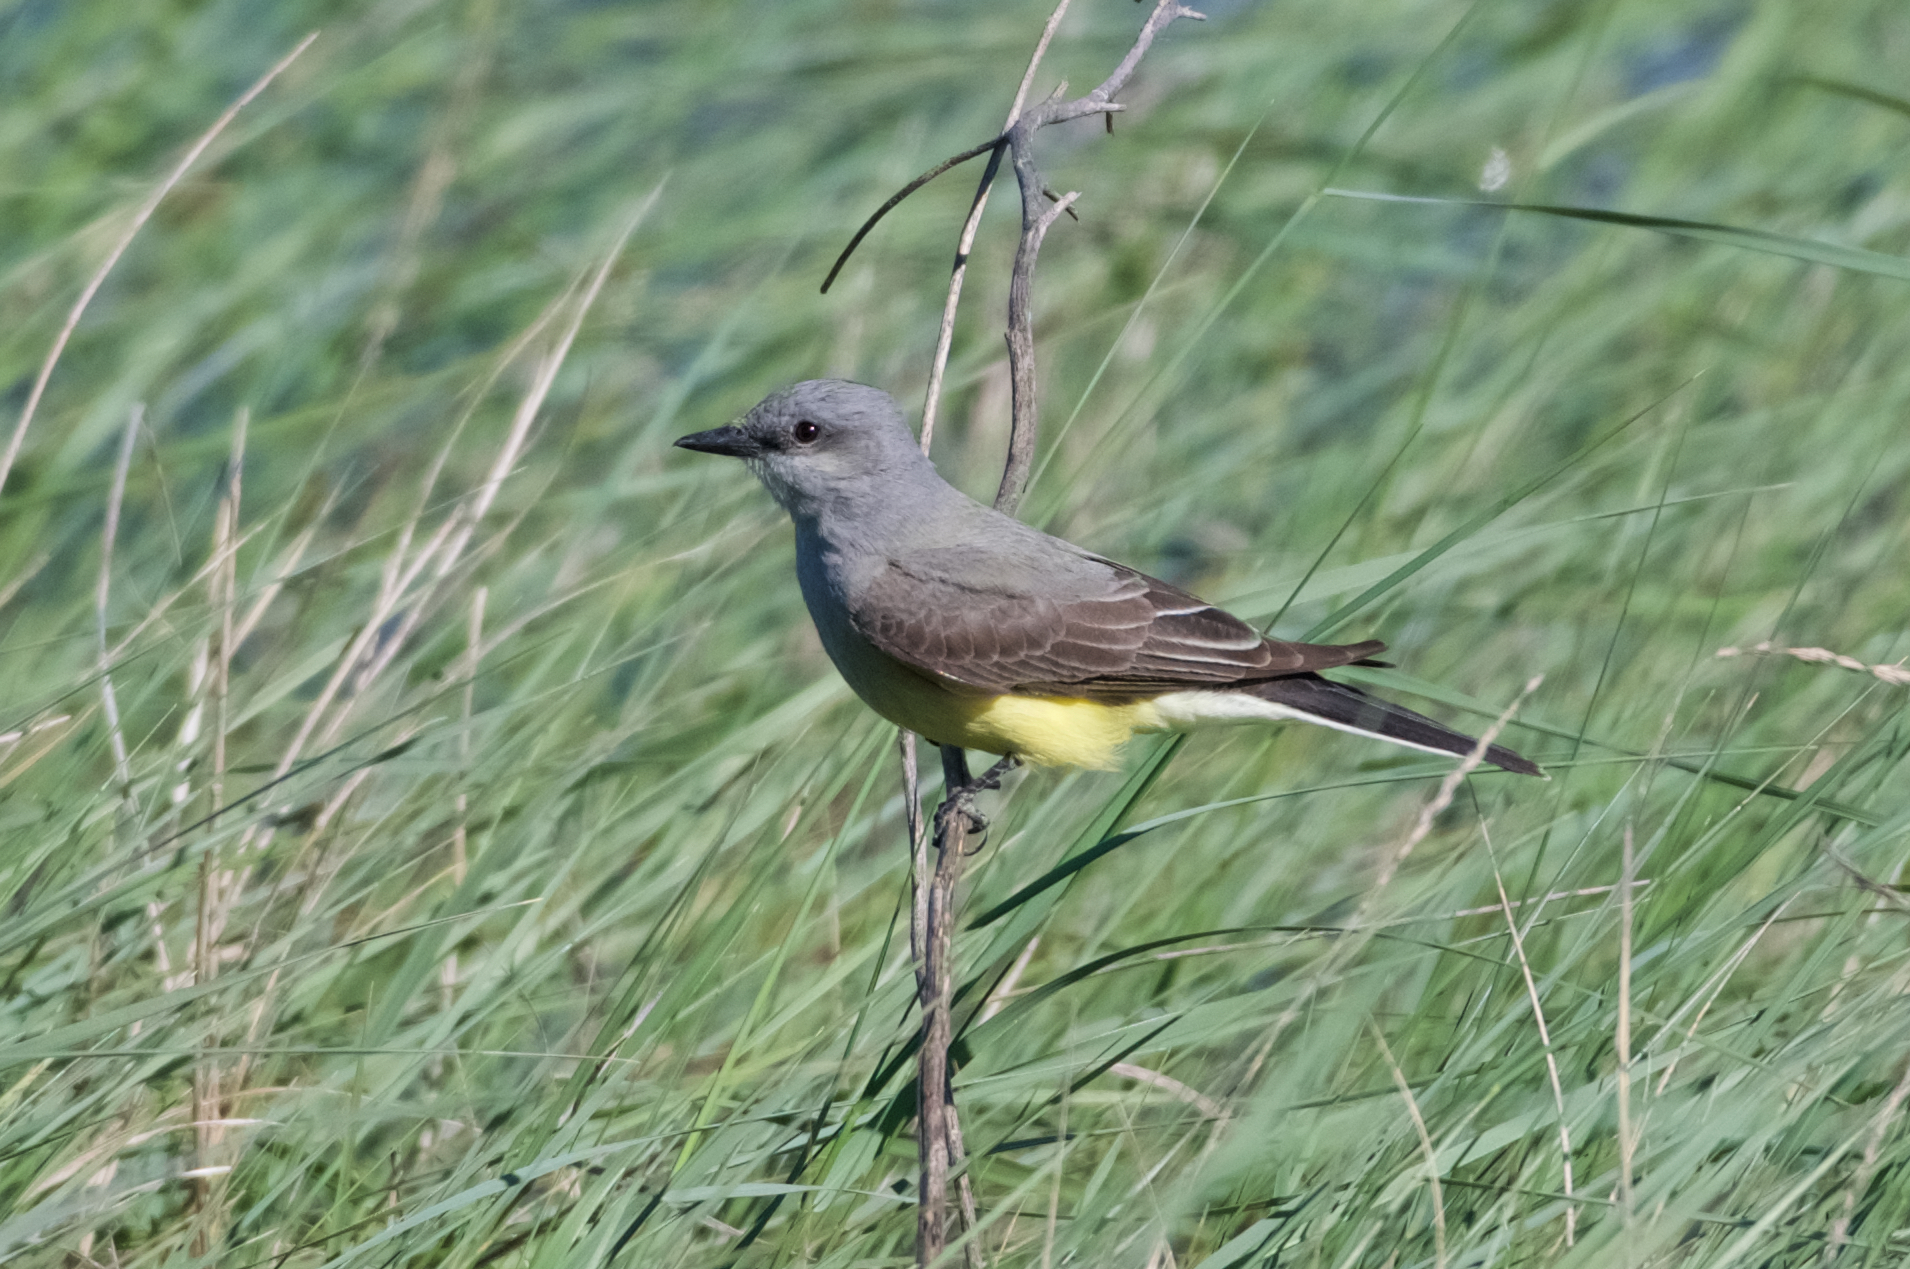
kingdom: Animalia
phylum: Chordata
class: Aves
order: Passeriformes
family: Tyrannidae
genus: Tyrannus
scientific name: Tyrannus verticalis
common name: Western kingbird
